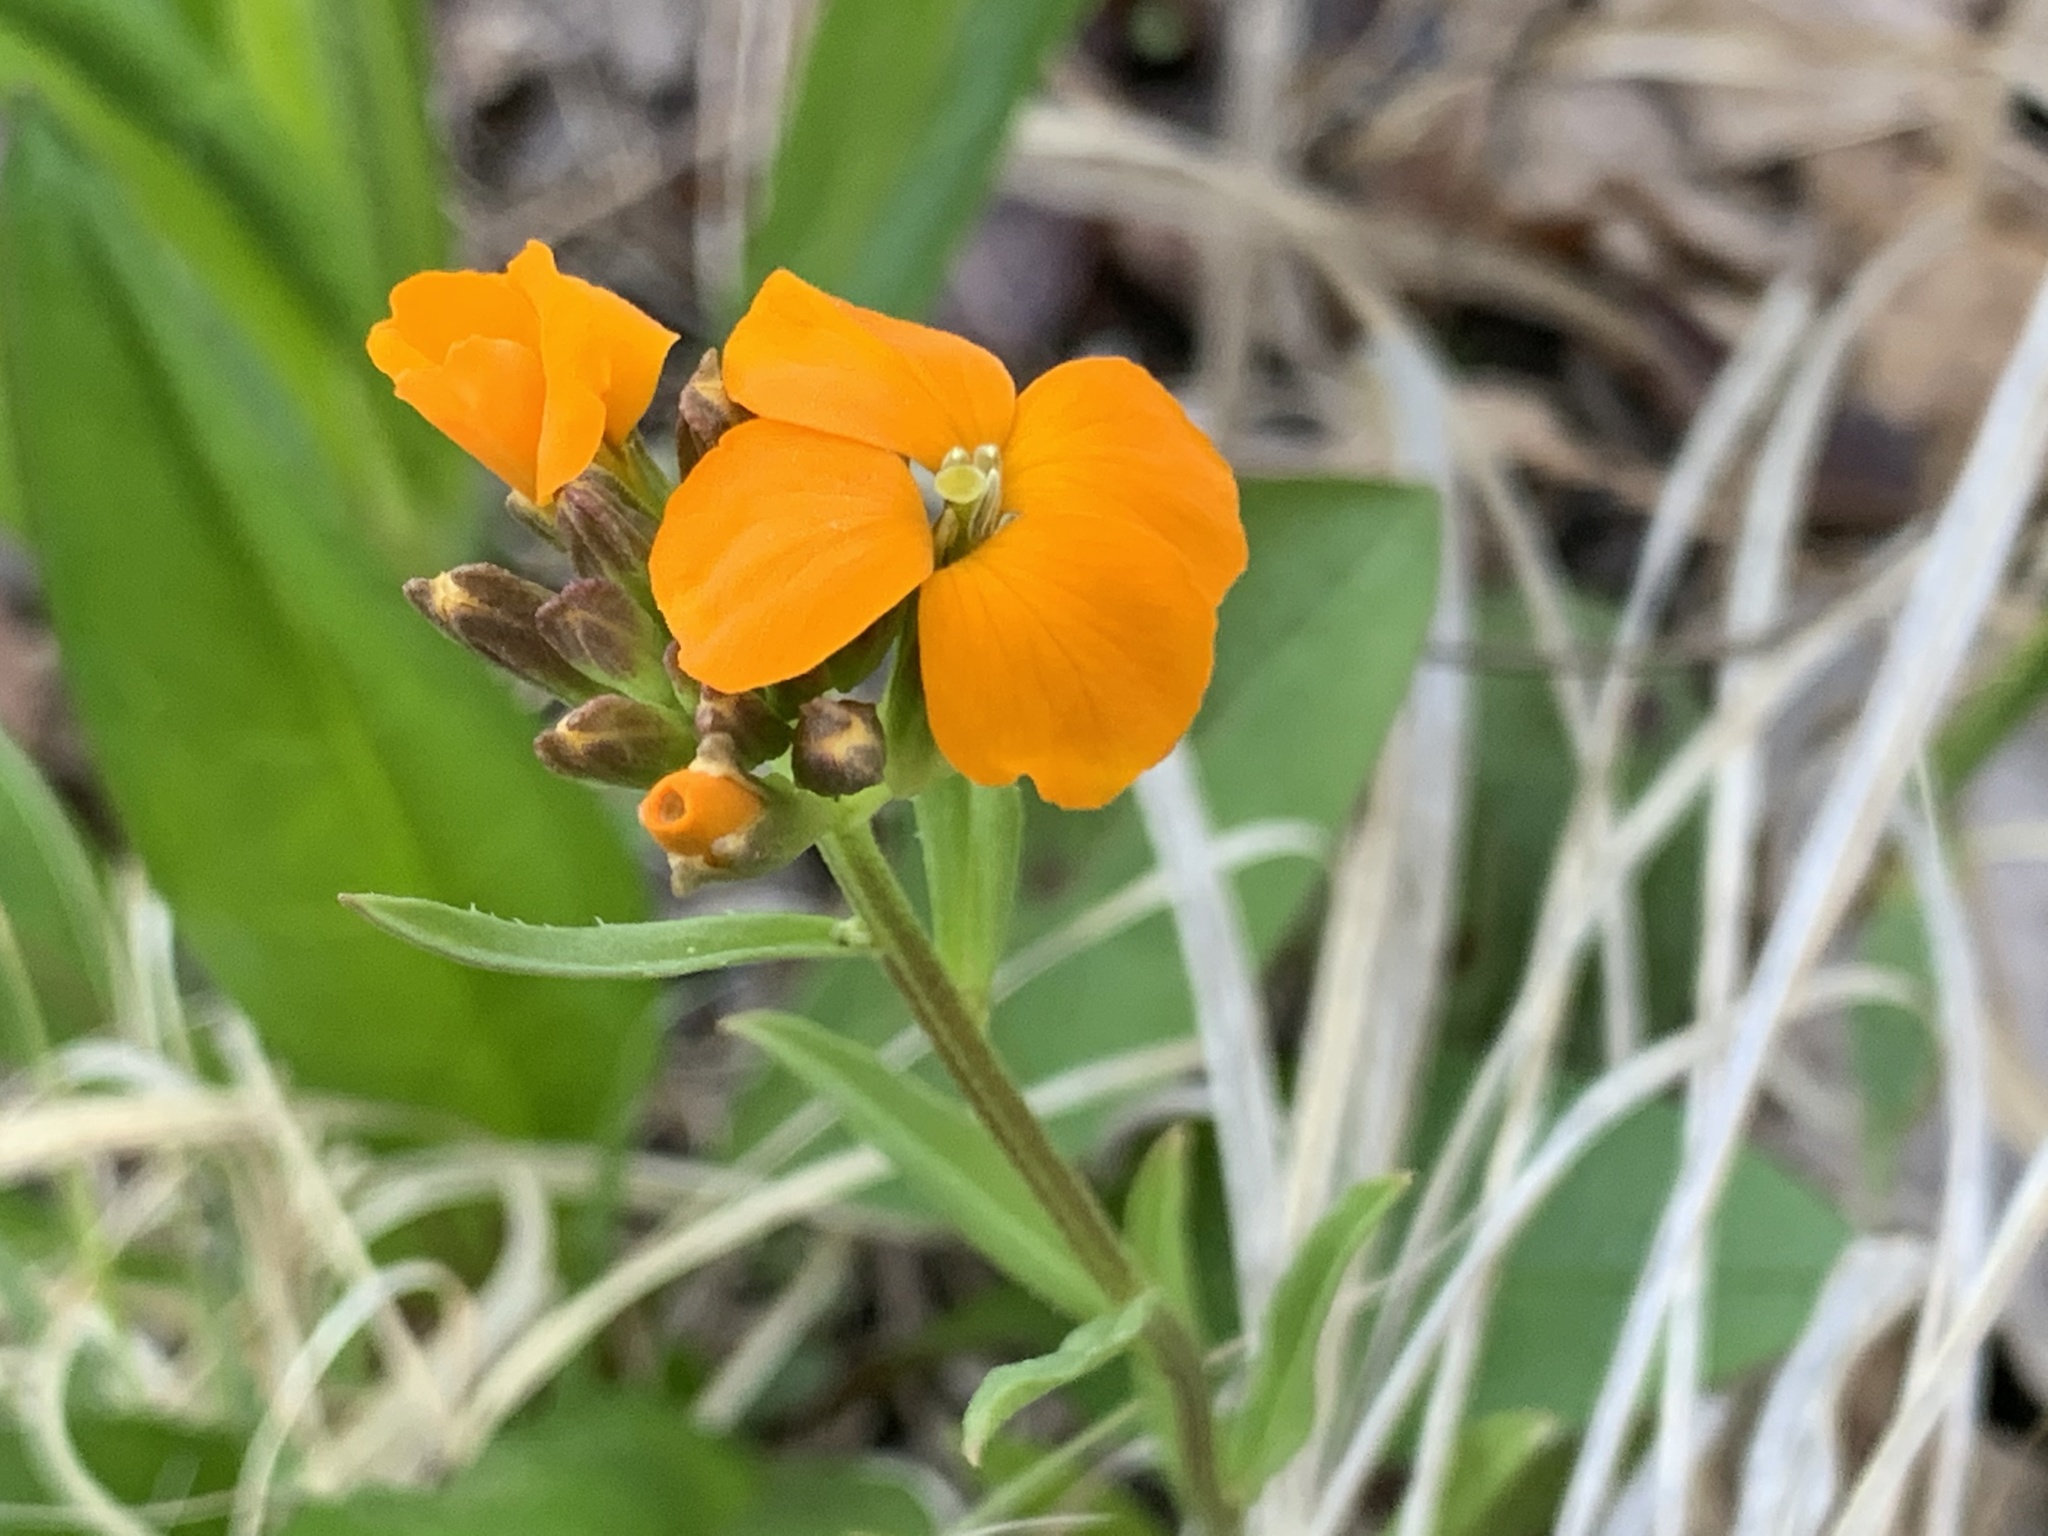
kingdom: Plantae
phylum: Tracheophyta
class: Magnoliopsida
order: Brassicales
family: Brassicaceae
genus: Erysimum
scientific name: Erysimum capitatum
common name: Western wallflower
